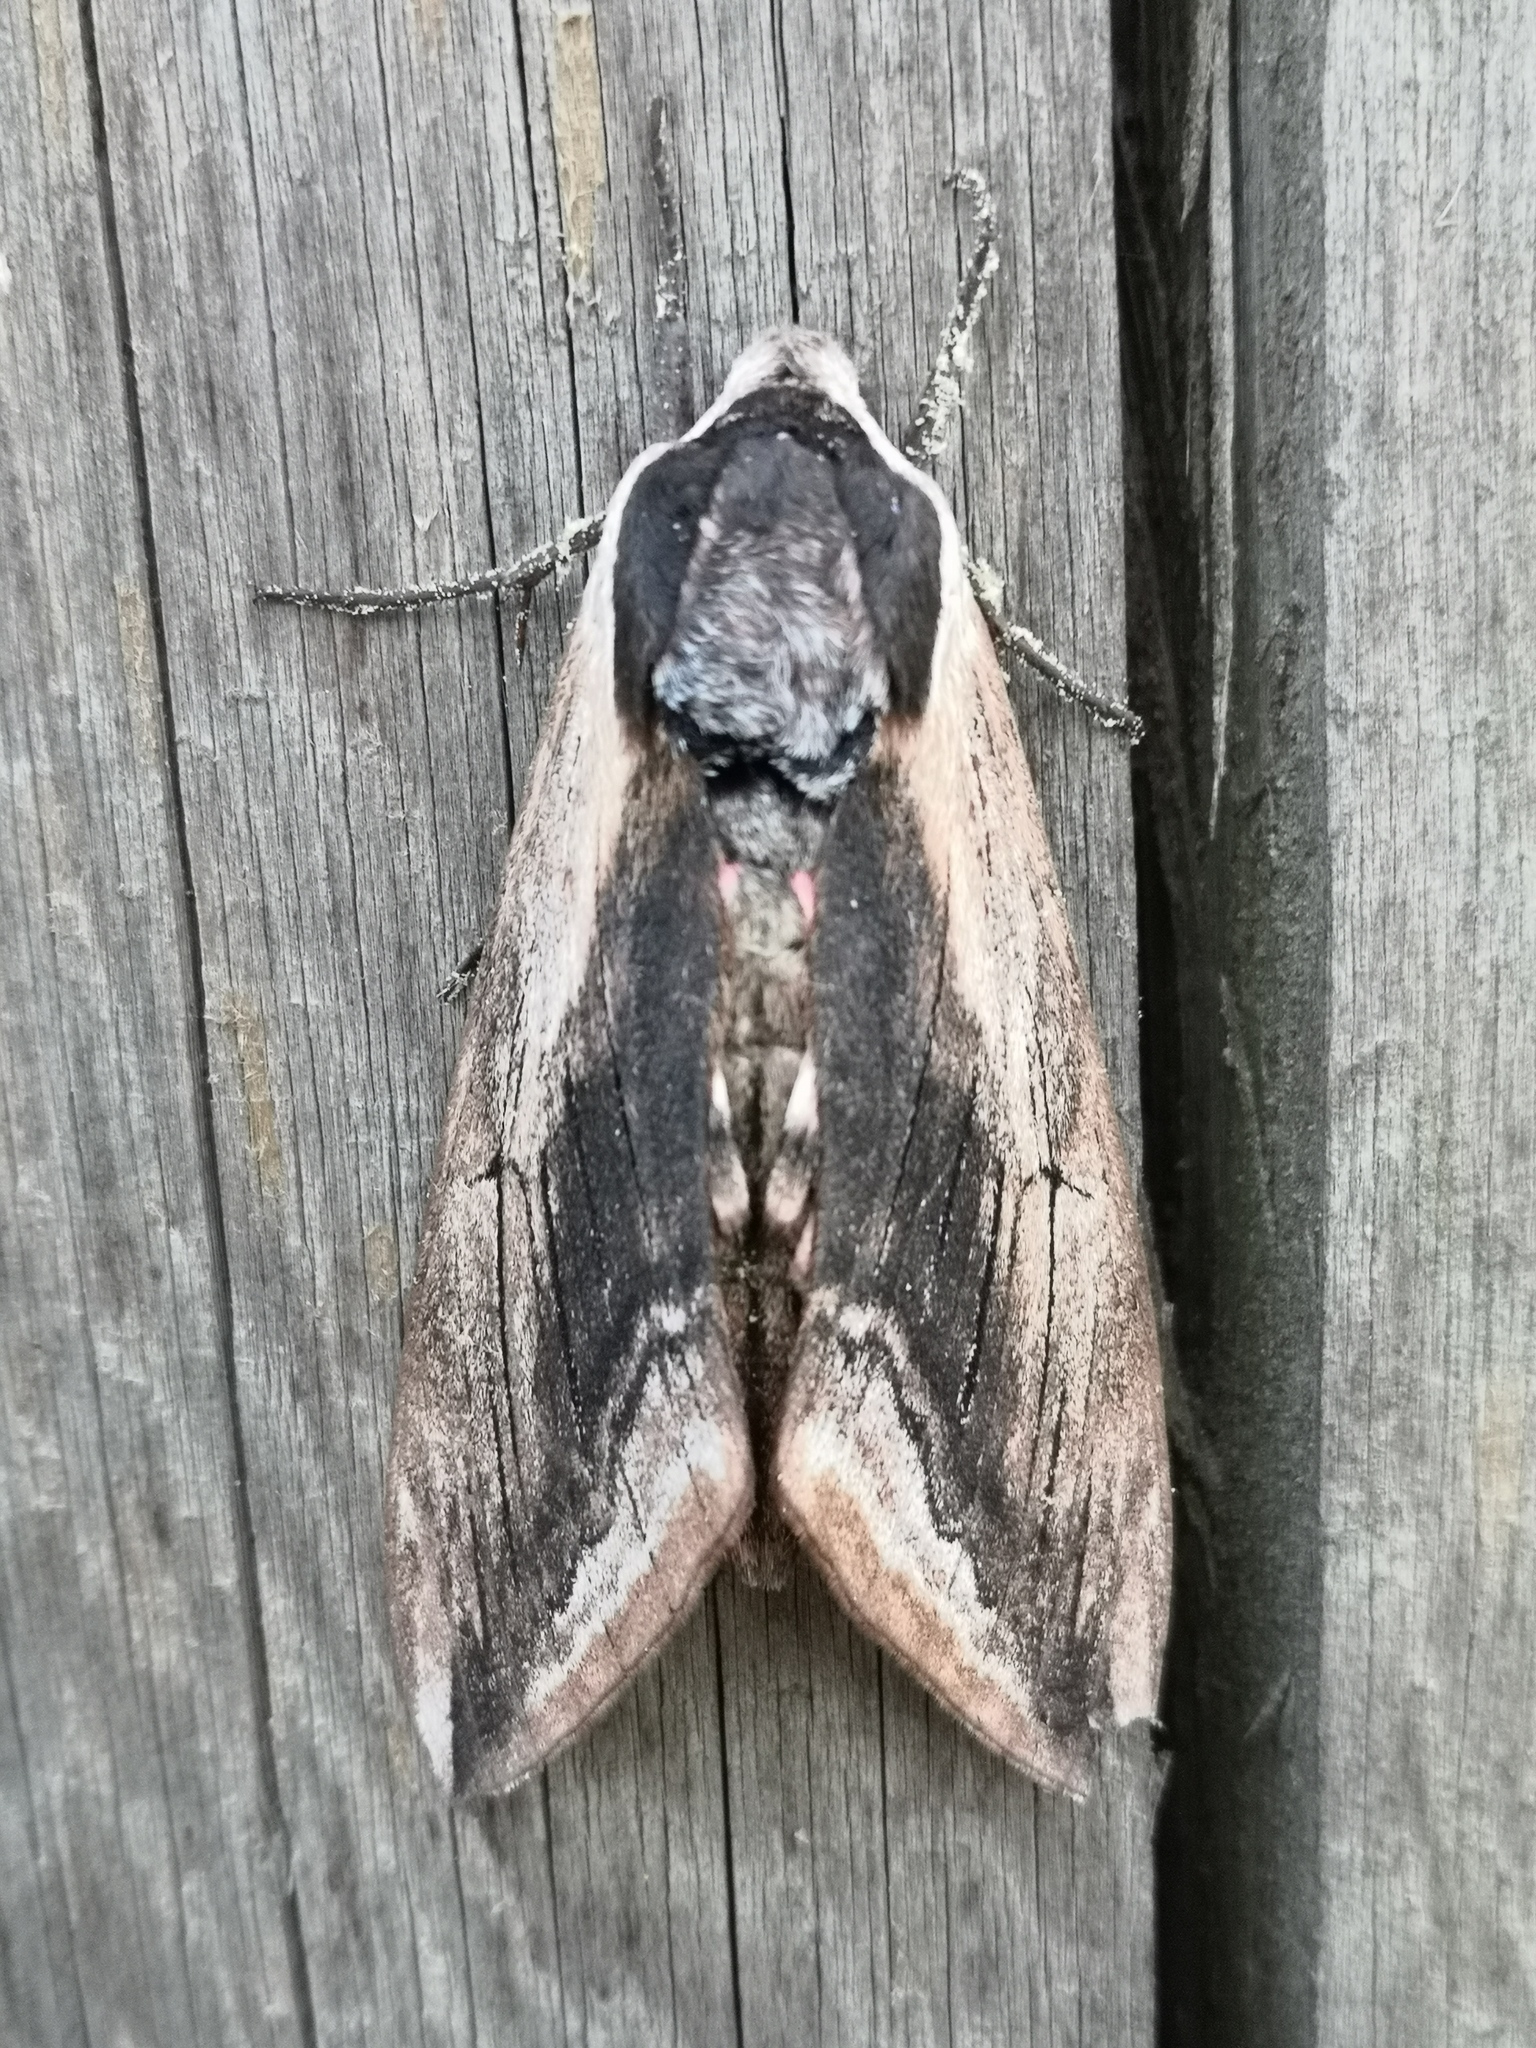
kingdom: Animalia
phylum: Arthropoda
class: Insecta
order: Lepidoptera
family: Sphingidae
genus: Sphinx
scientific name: Sphinx ligustri
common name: Privet hawk-moth
